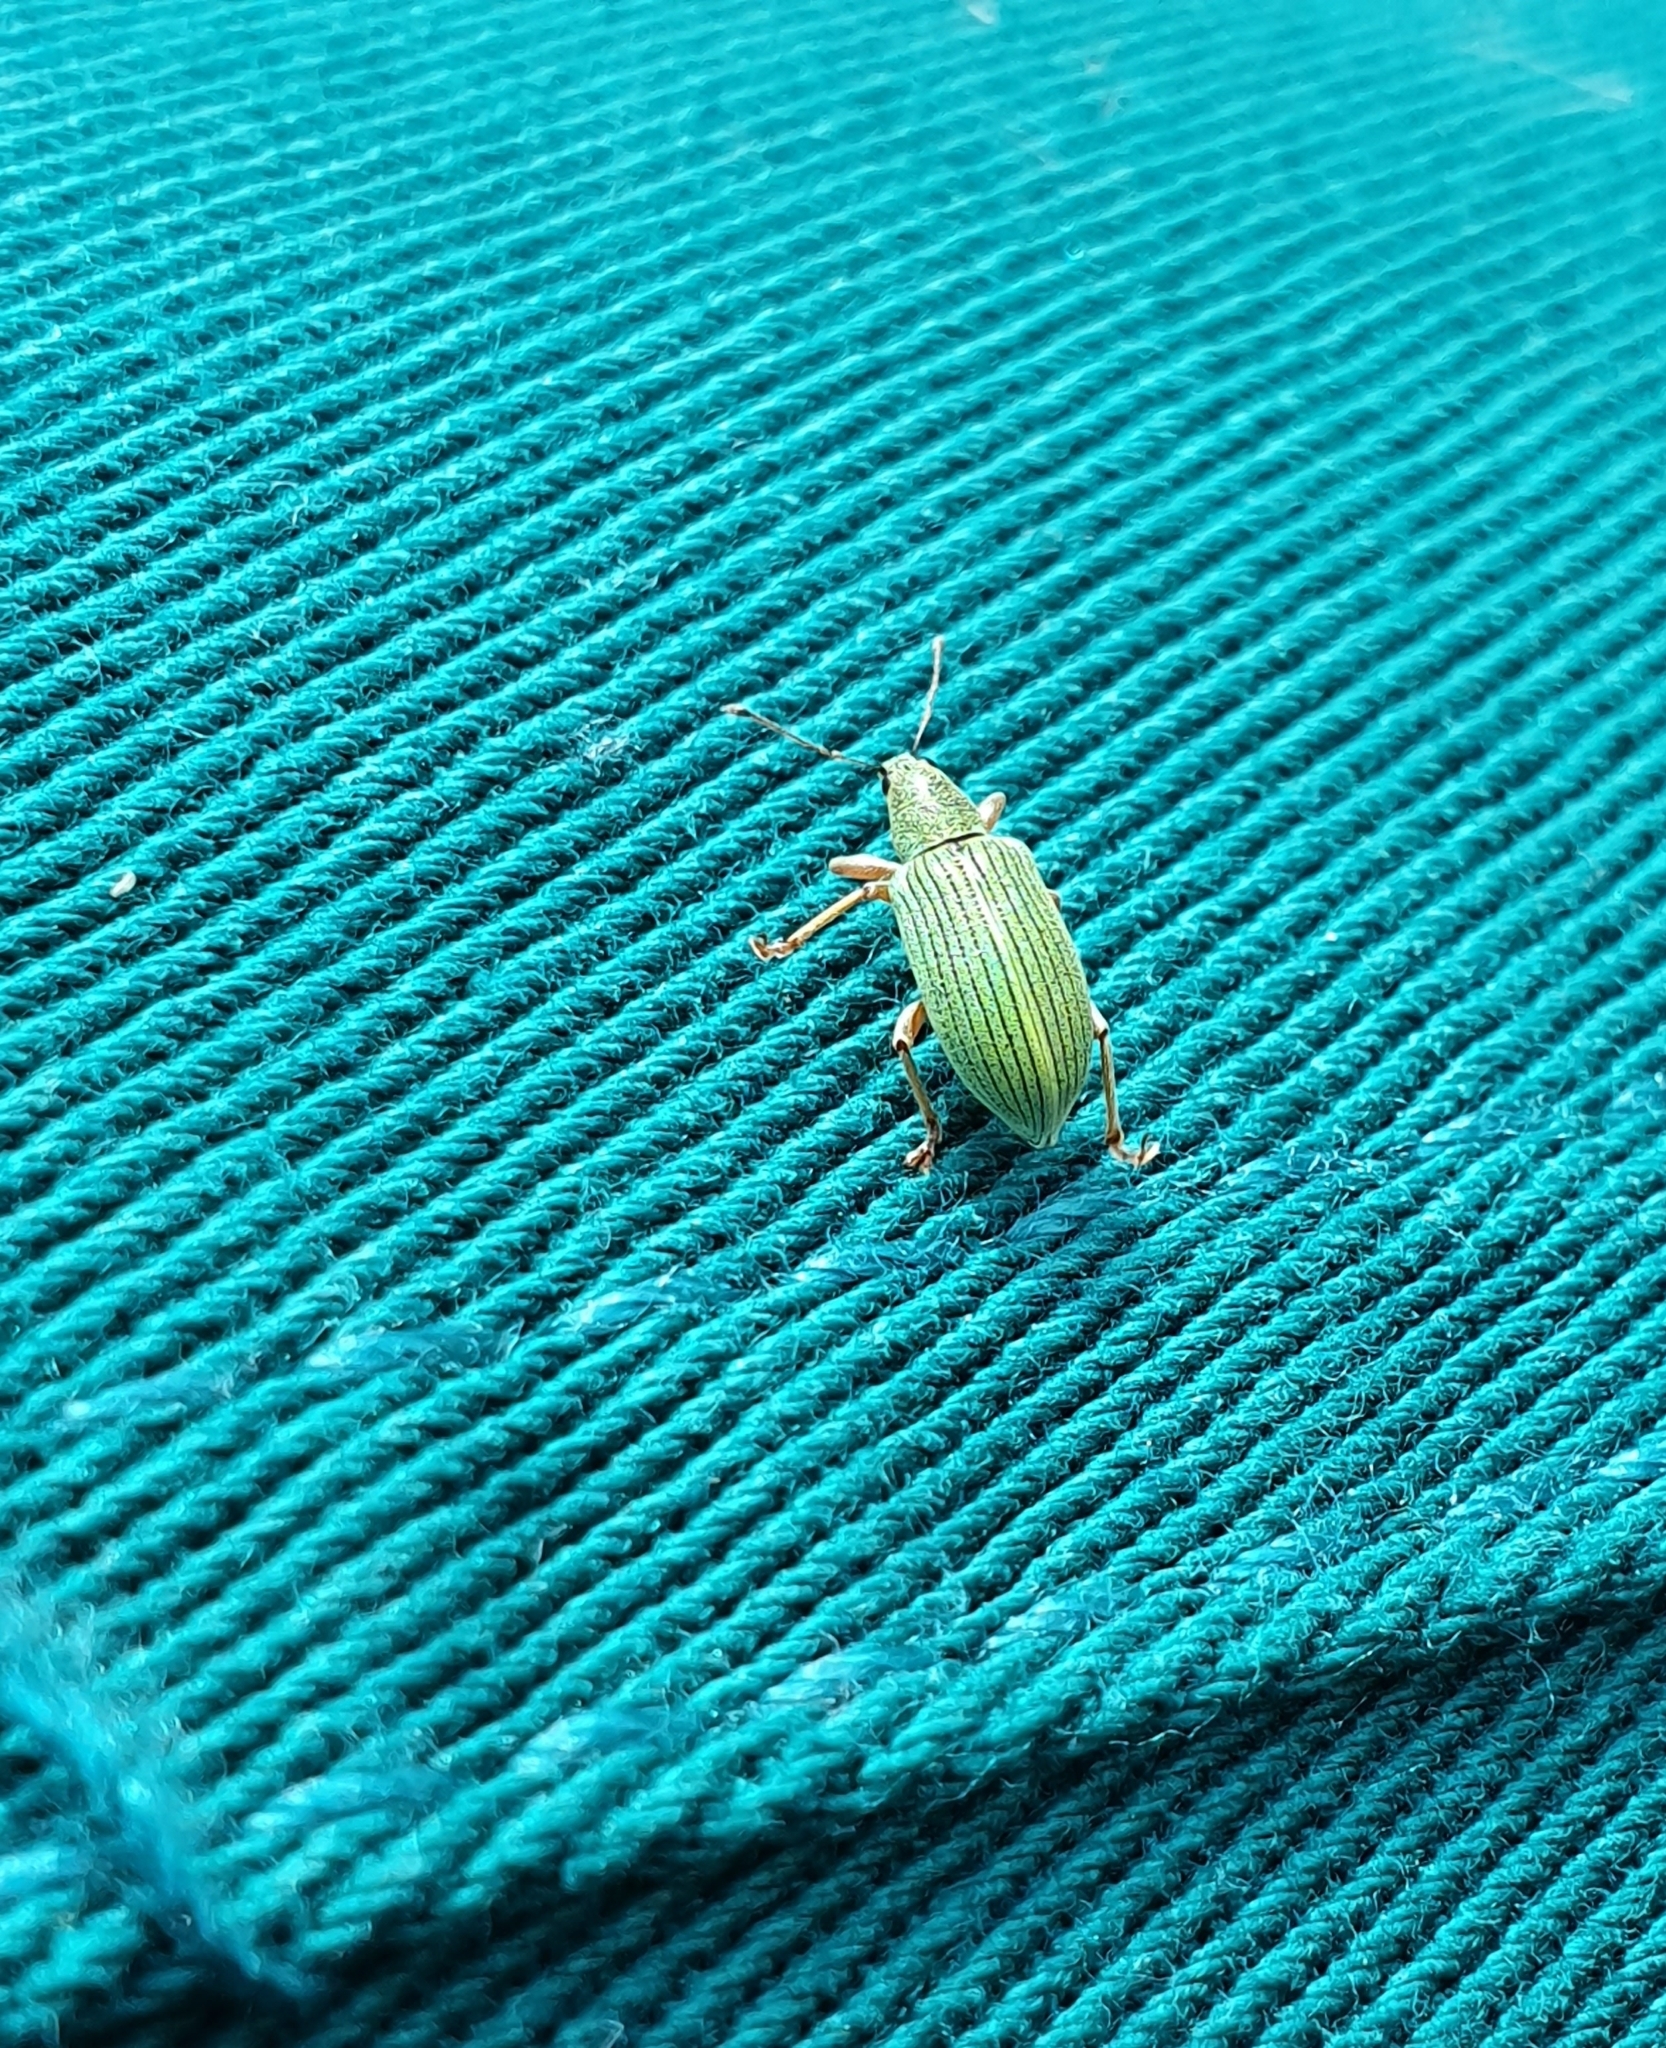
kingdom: Animalia
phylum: Arthropoda
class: Insecta
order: Coleoptera
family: Curculionidae
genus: Polydrusus
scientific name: Polydrusus formosus
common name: Weevil
